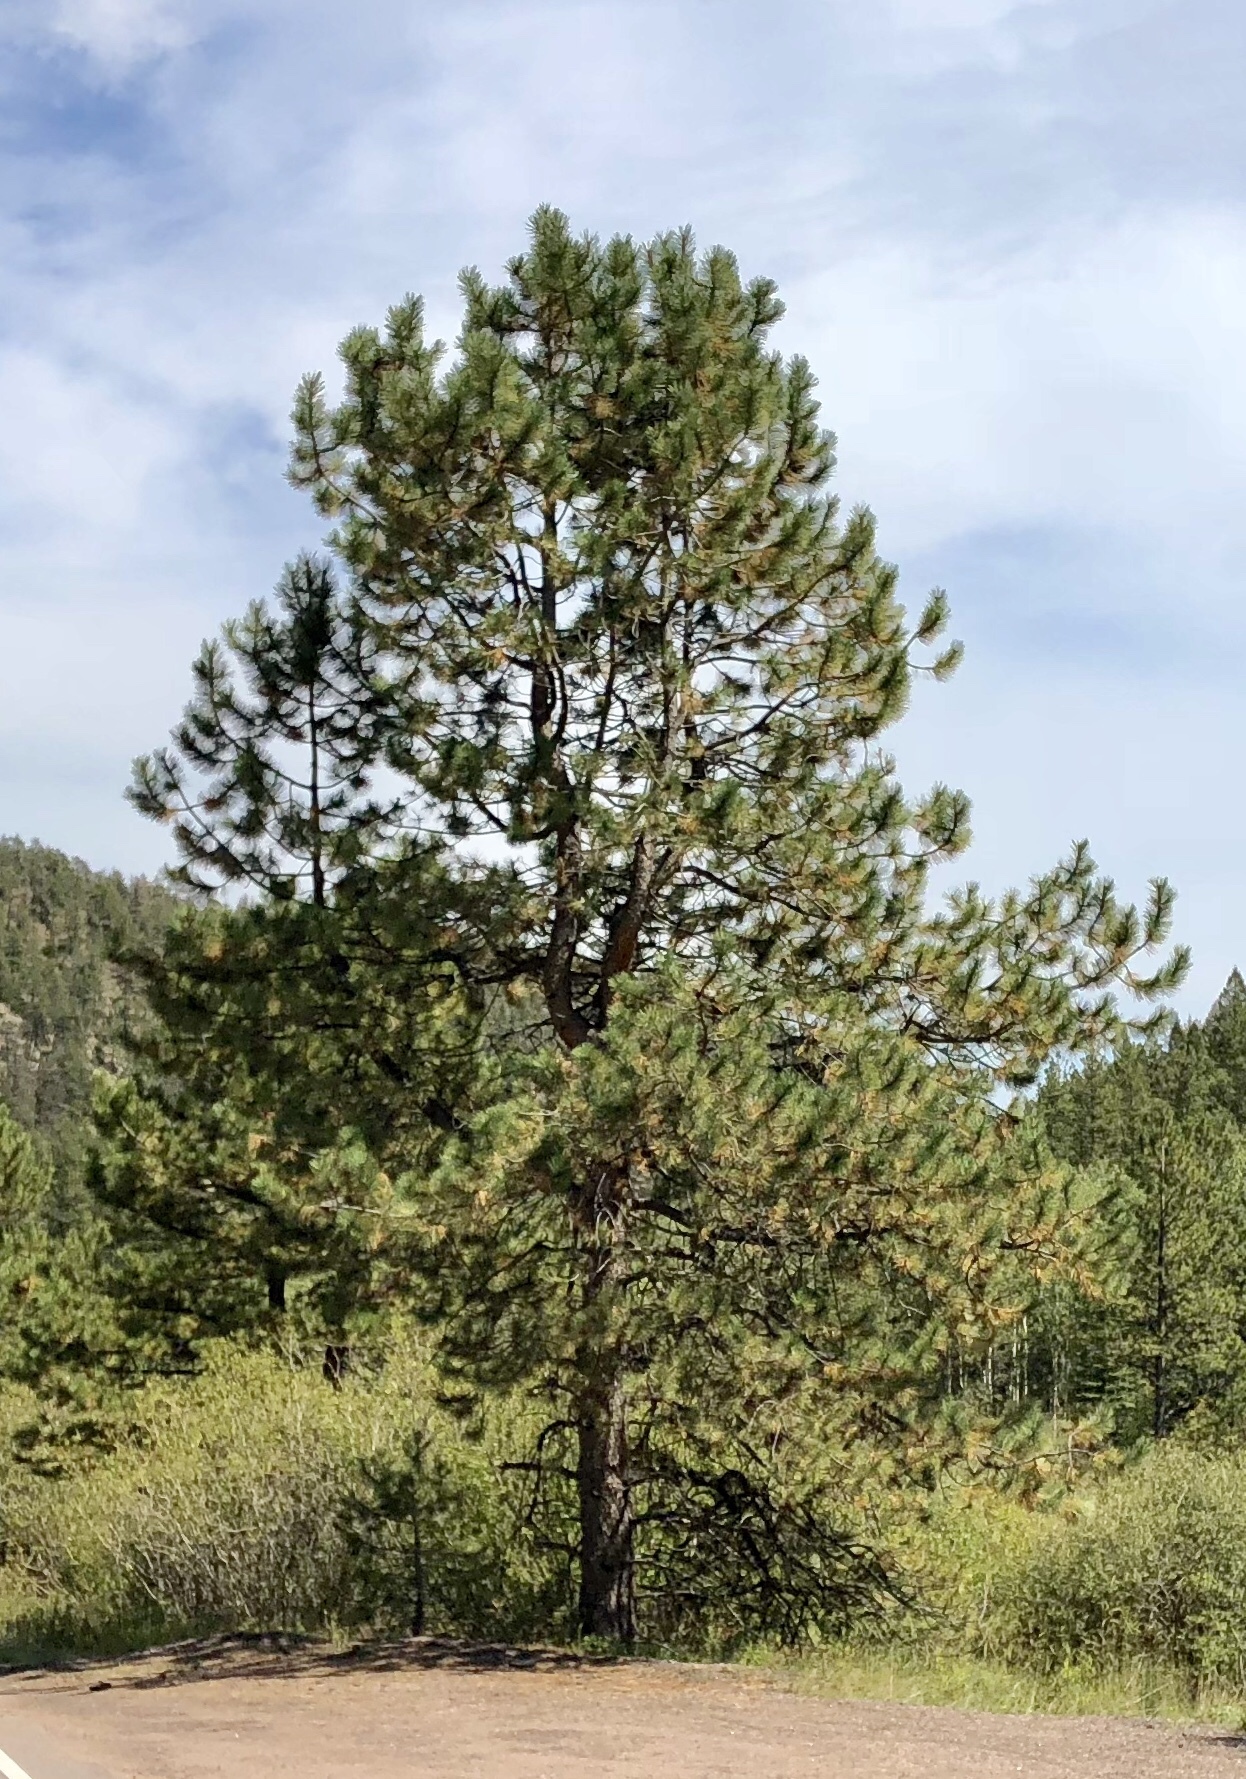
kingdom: Plantae
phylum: Tracheophyta
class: Pinopsida
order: Pinales
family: Pinaceae
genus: Pinus
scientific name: Pinus ponderosa
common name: Western yellow-pine
